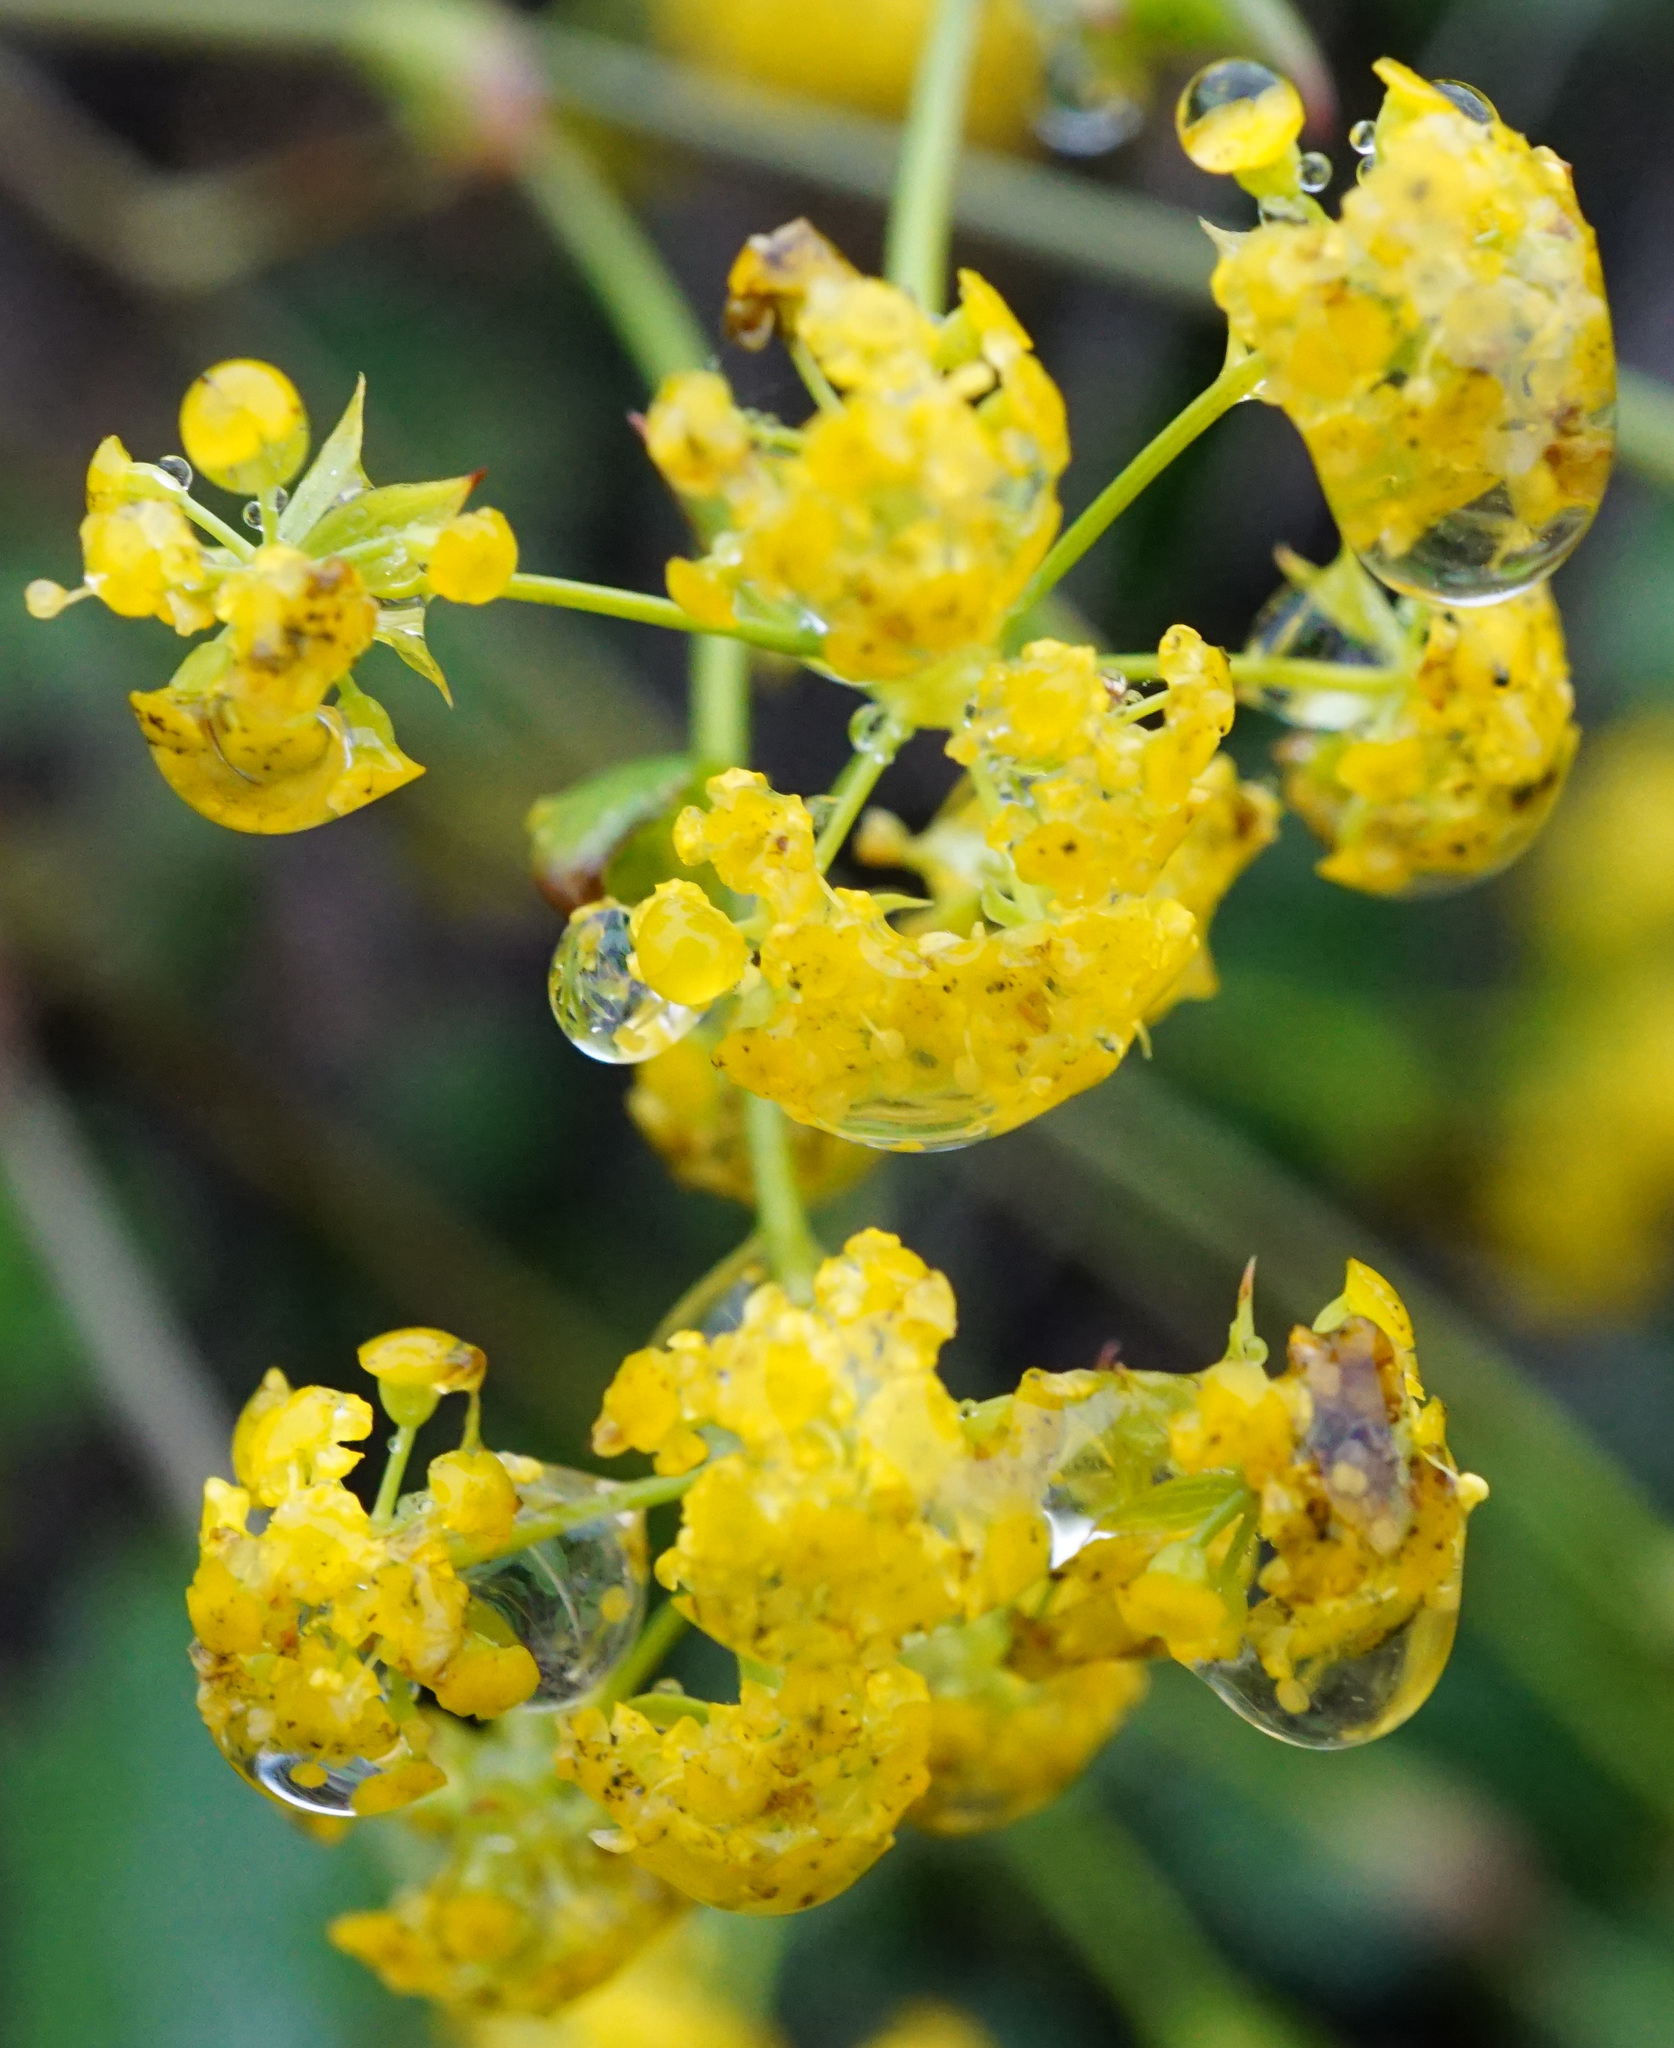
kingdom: Plantae
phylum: Tracheophyta
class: Magnoliopsida
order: Apiales
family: Apiaceae
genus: Bupleurum
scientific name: Bupleurum falcatum
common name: Sickle-leaved hare's-ear
